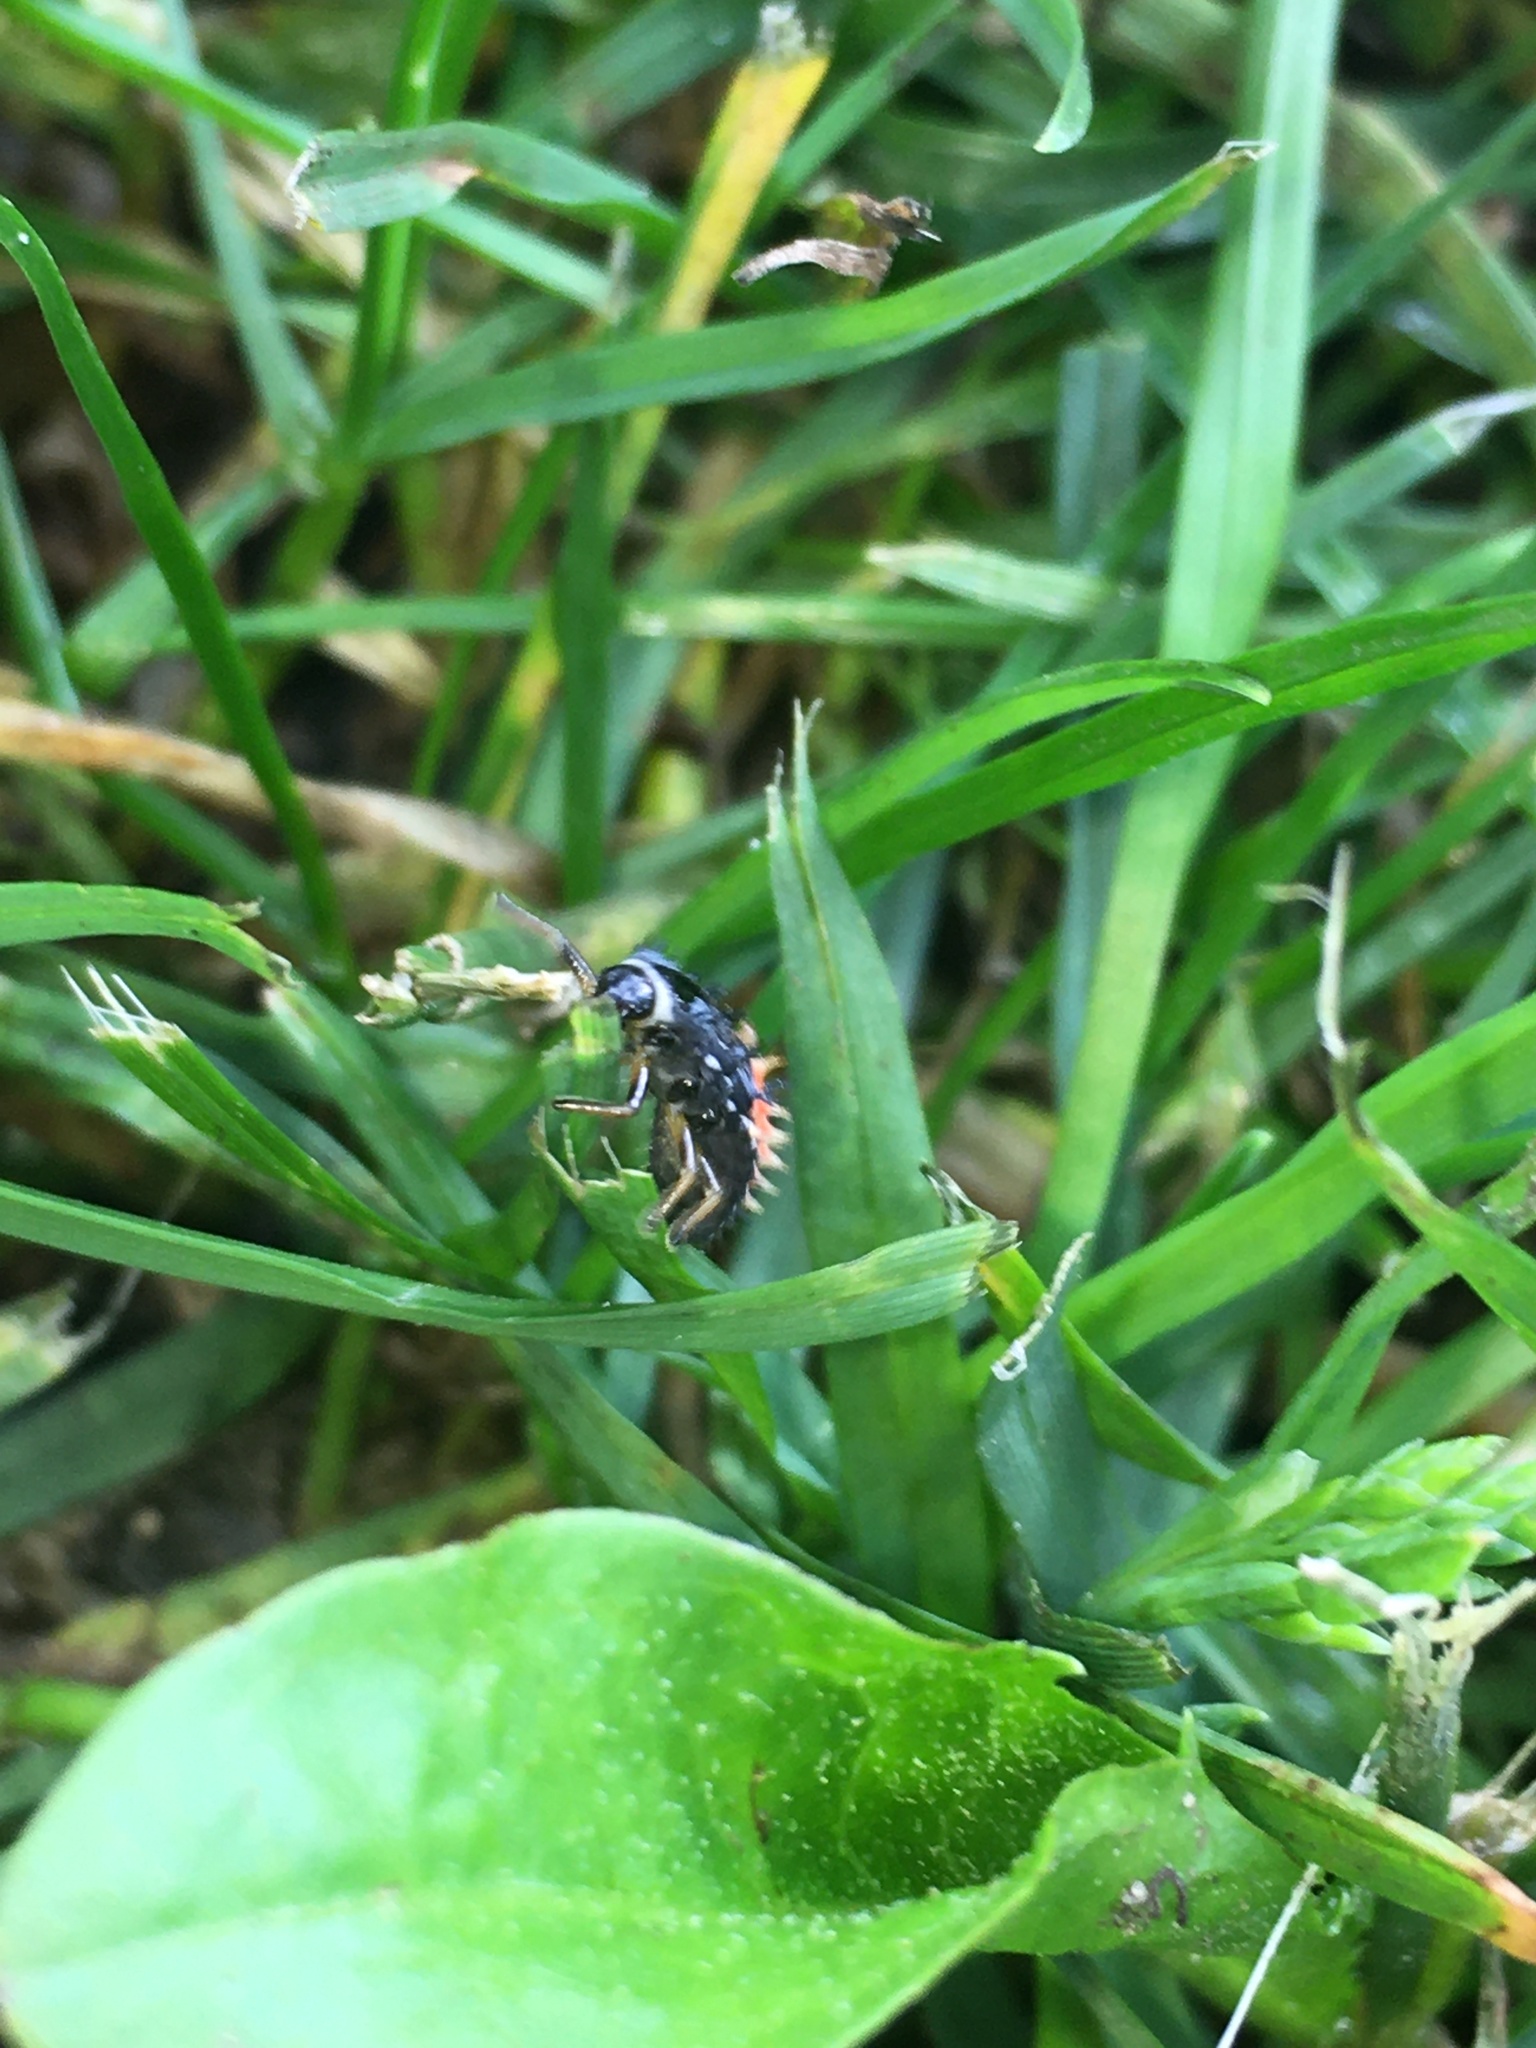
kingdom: Animalia
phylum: Arthropoda
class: Insecta
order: Coleoptera
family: Coccinellidae
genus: Harmonia
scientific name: Harmonia axyridis
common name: Harlequin ladybird
